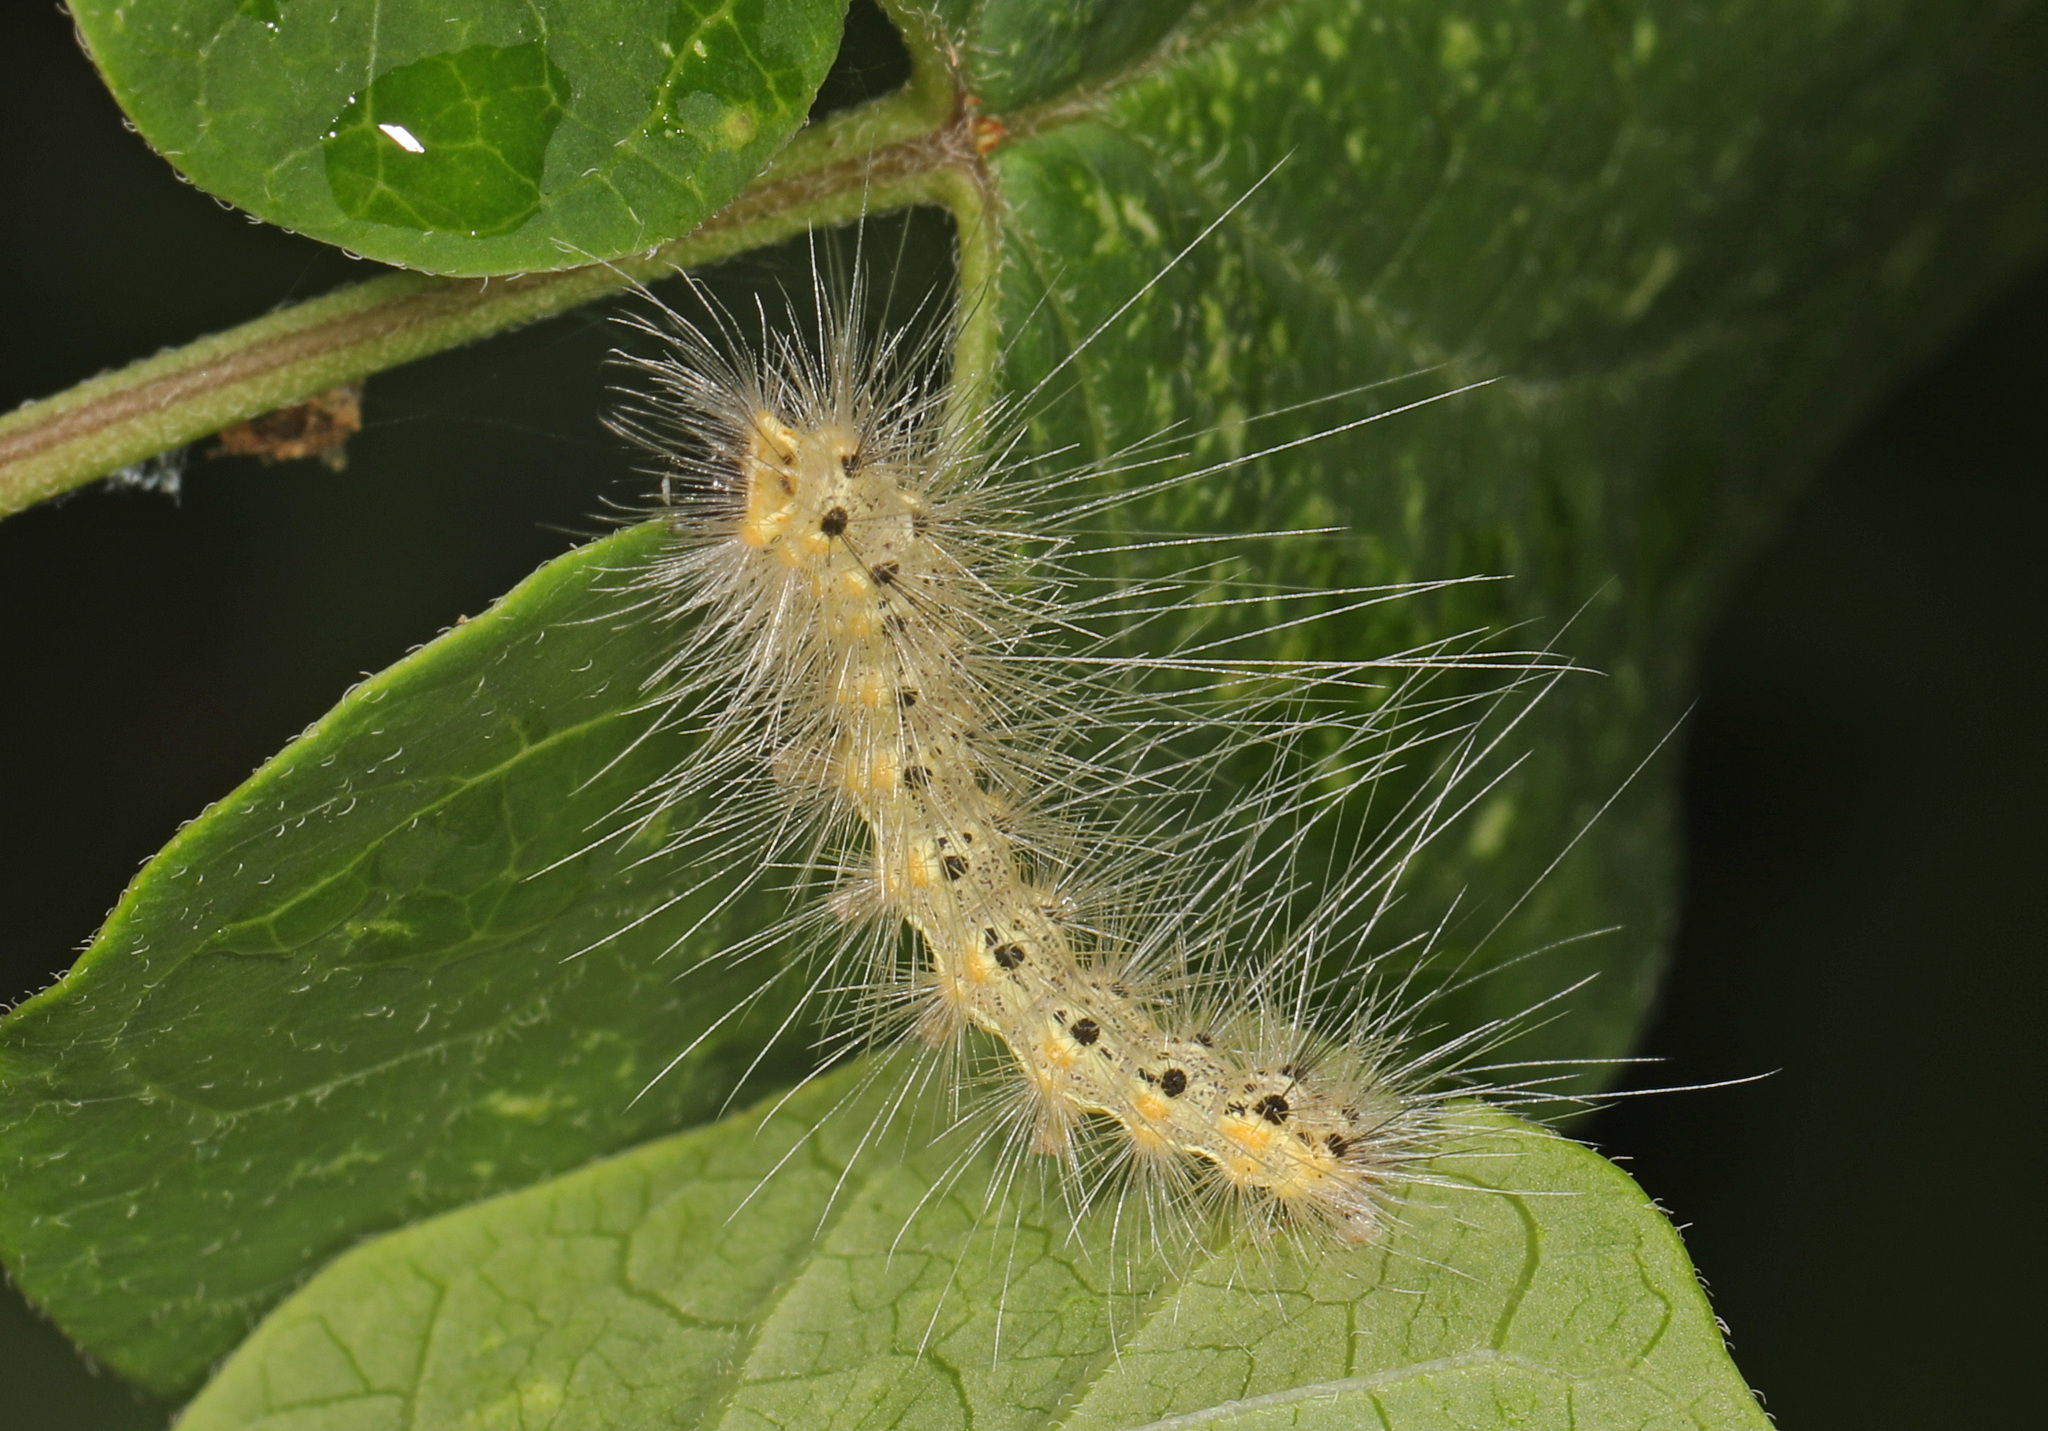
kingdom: Animalia
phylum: Arthropoda
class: Insecta
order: Lepidoptera
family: Erebidae
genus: Hyphantria
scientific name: Hyphantria cunea
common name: American white moth
